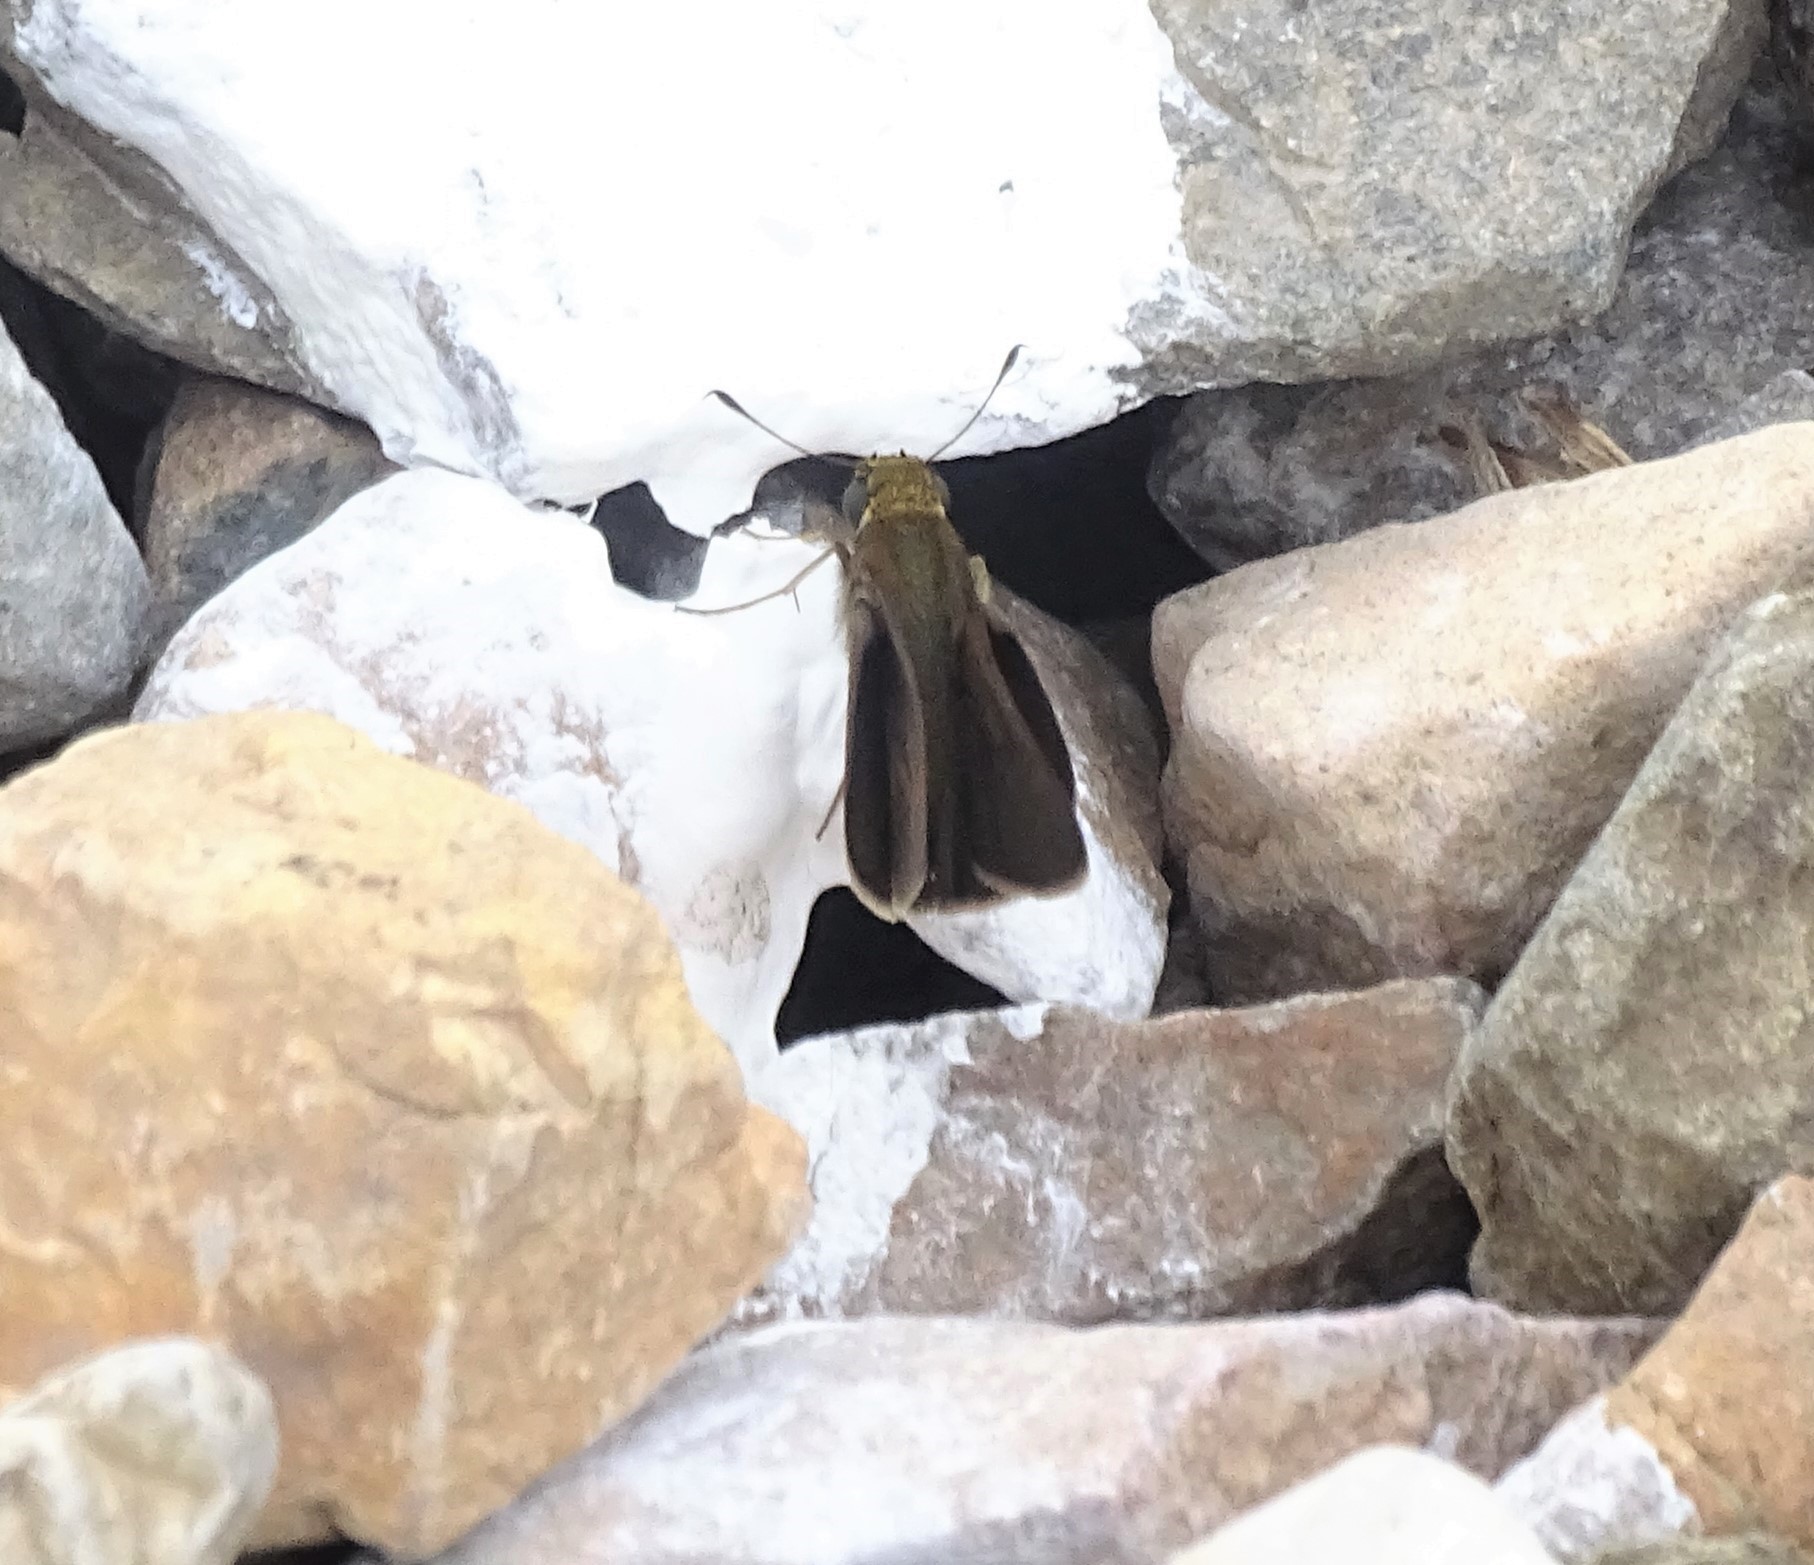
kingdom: Animalia
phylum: Arthropoda
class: Insecta
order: Lepidoptera
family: Hesperiidae
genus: Euphyes
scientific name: Euphyes vestris
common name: Dun skipper
